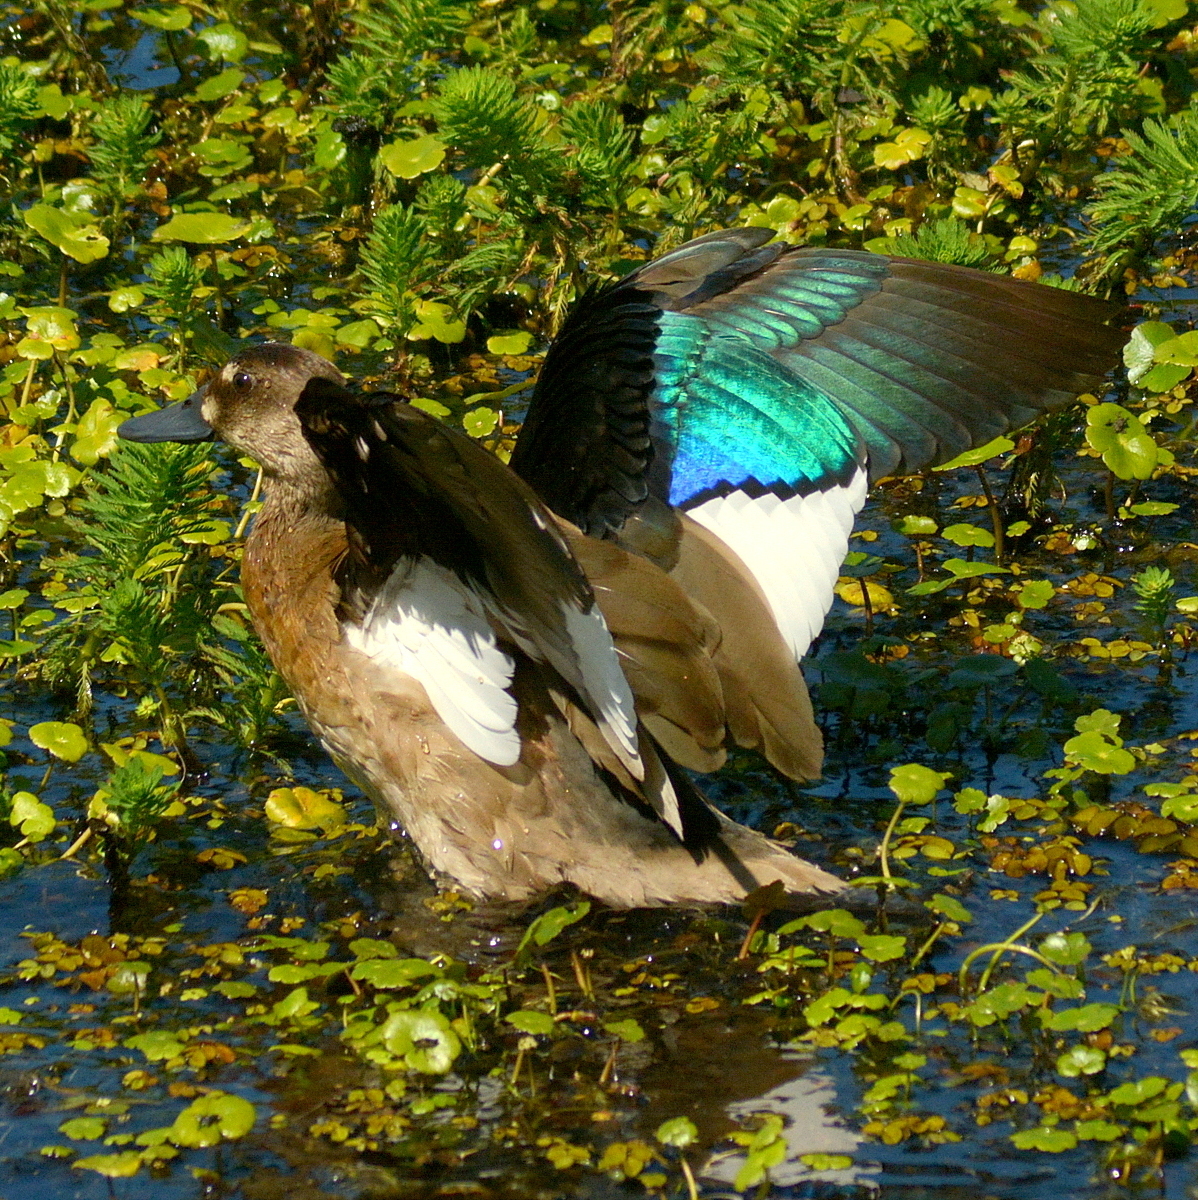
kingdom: Animalia
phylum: Chordata
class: Aves
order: Anseriformes
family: Anatidae
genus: Amazonetta
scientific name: Amazonetta brasiliensis
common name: Brazilian teal
